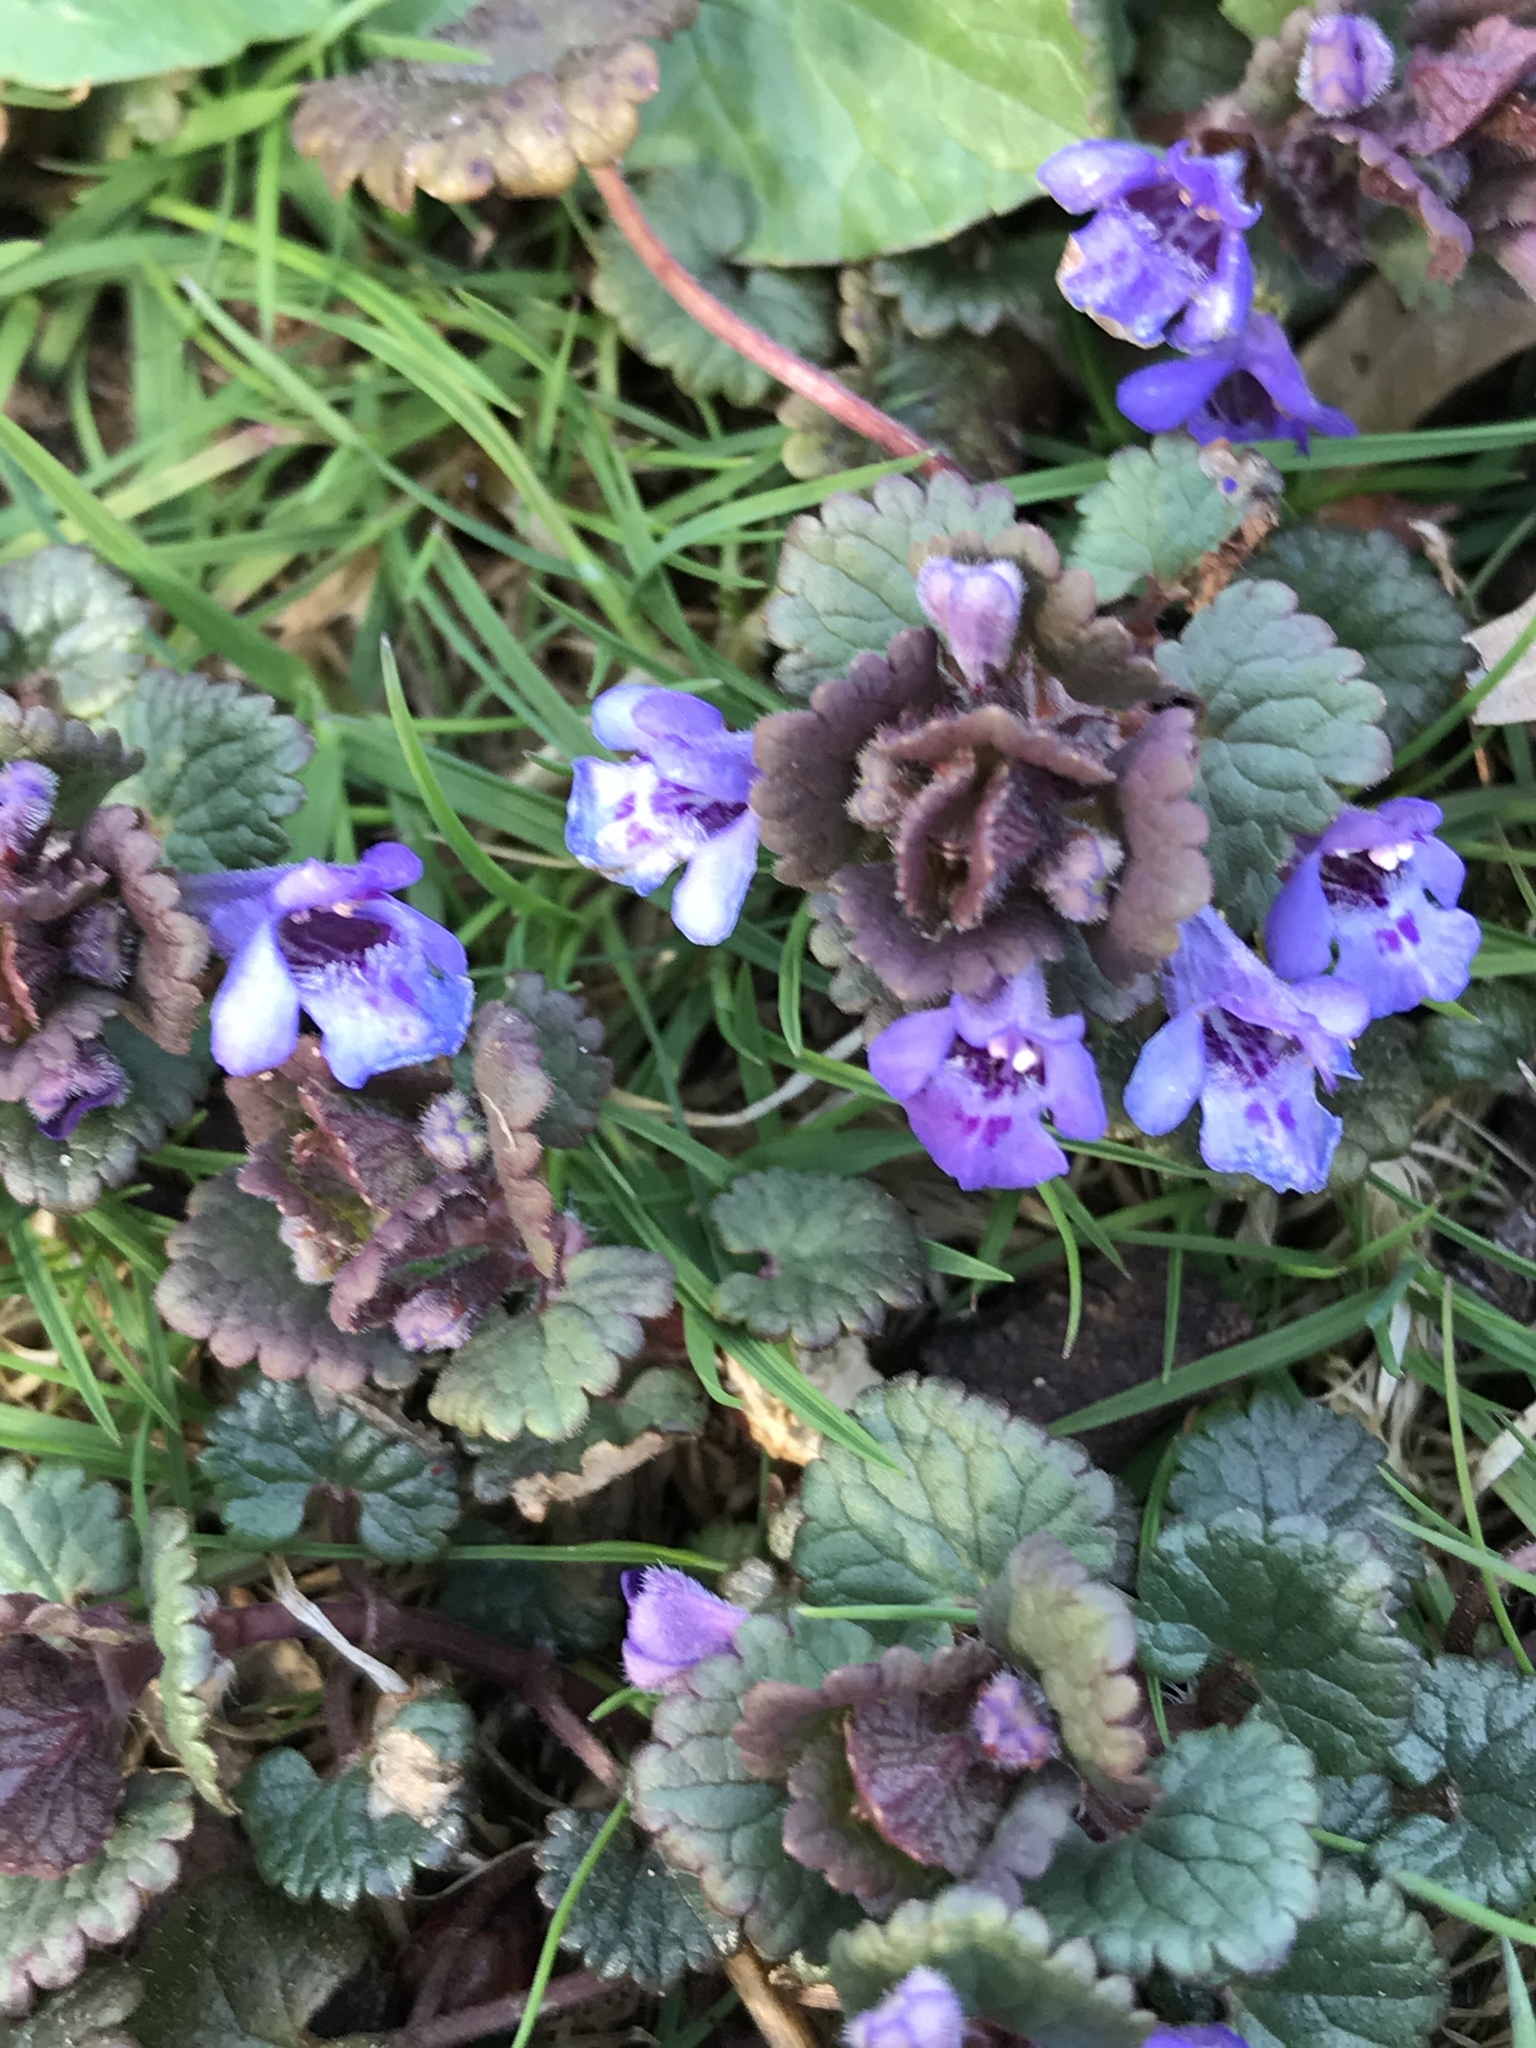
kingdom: Plantae
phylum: Tracheophyta
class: Magnoliopsida
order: Lamiales
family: Lamiaceae
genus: Glechoma
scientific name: Glechoma hederacea
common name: Ground ivy
